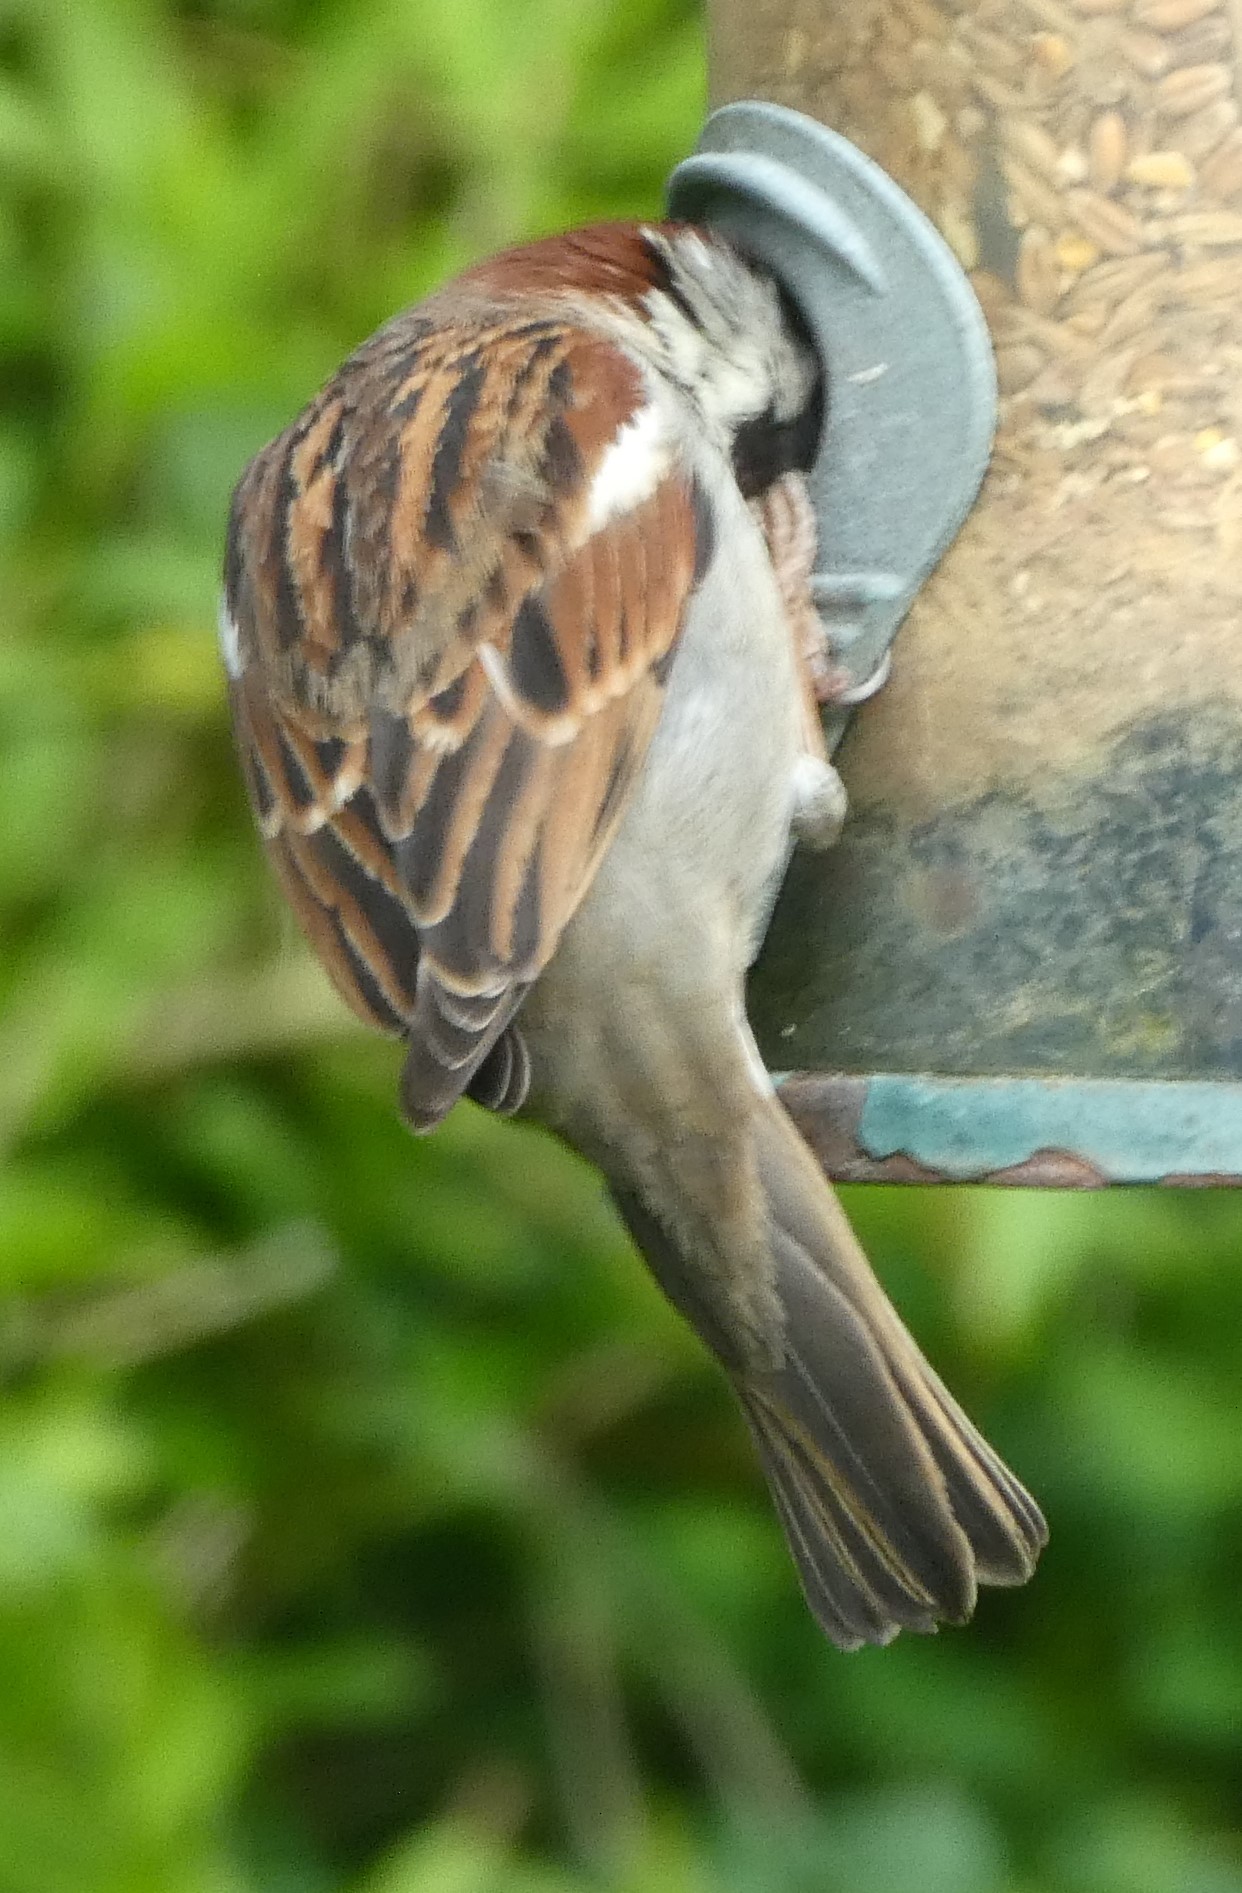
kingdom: Animalia
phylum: Chordata
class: Aves
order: Passeriformes
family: Passeridae
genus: Passer
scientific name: Passer domesticus
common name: House sparrow
